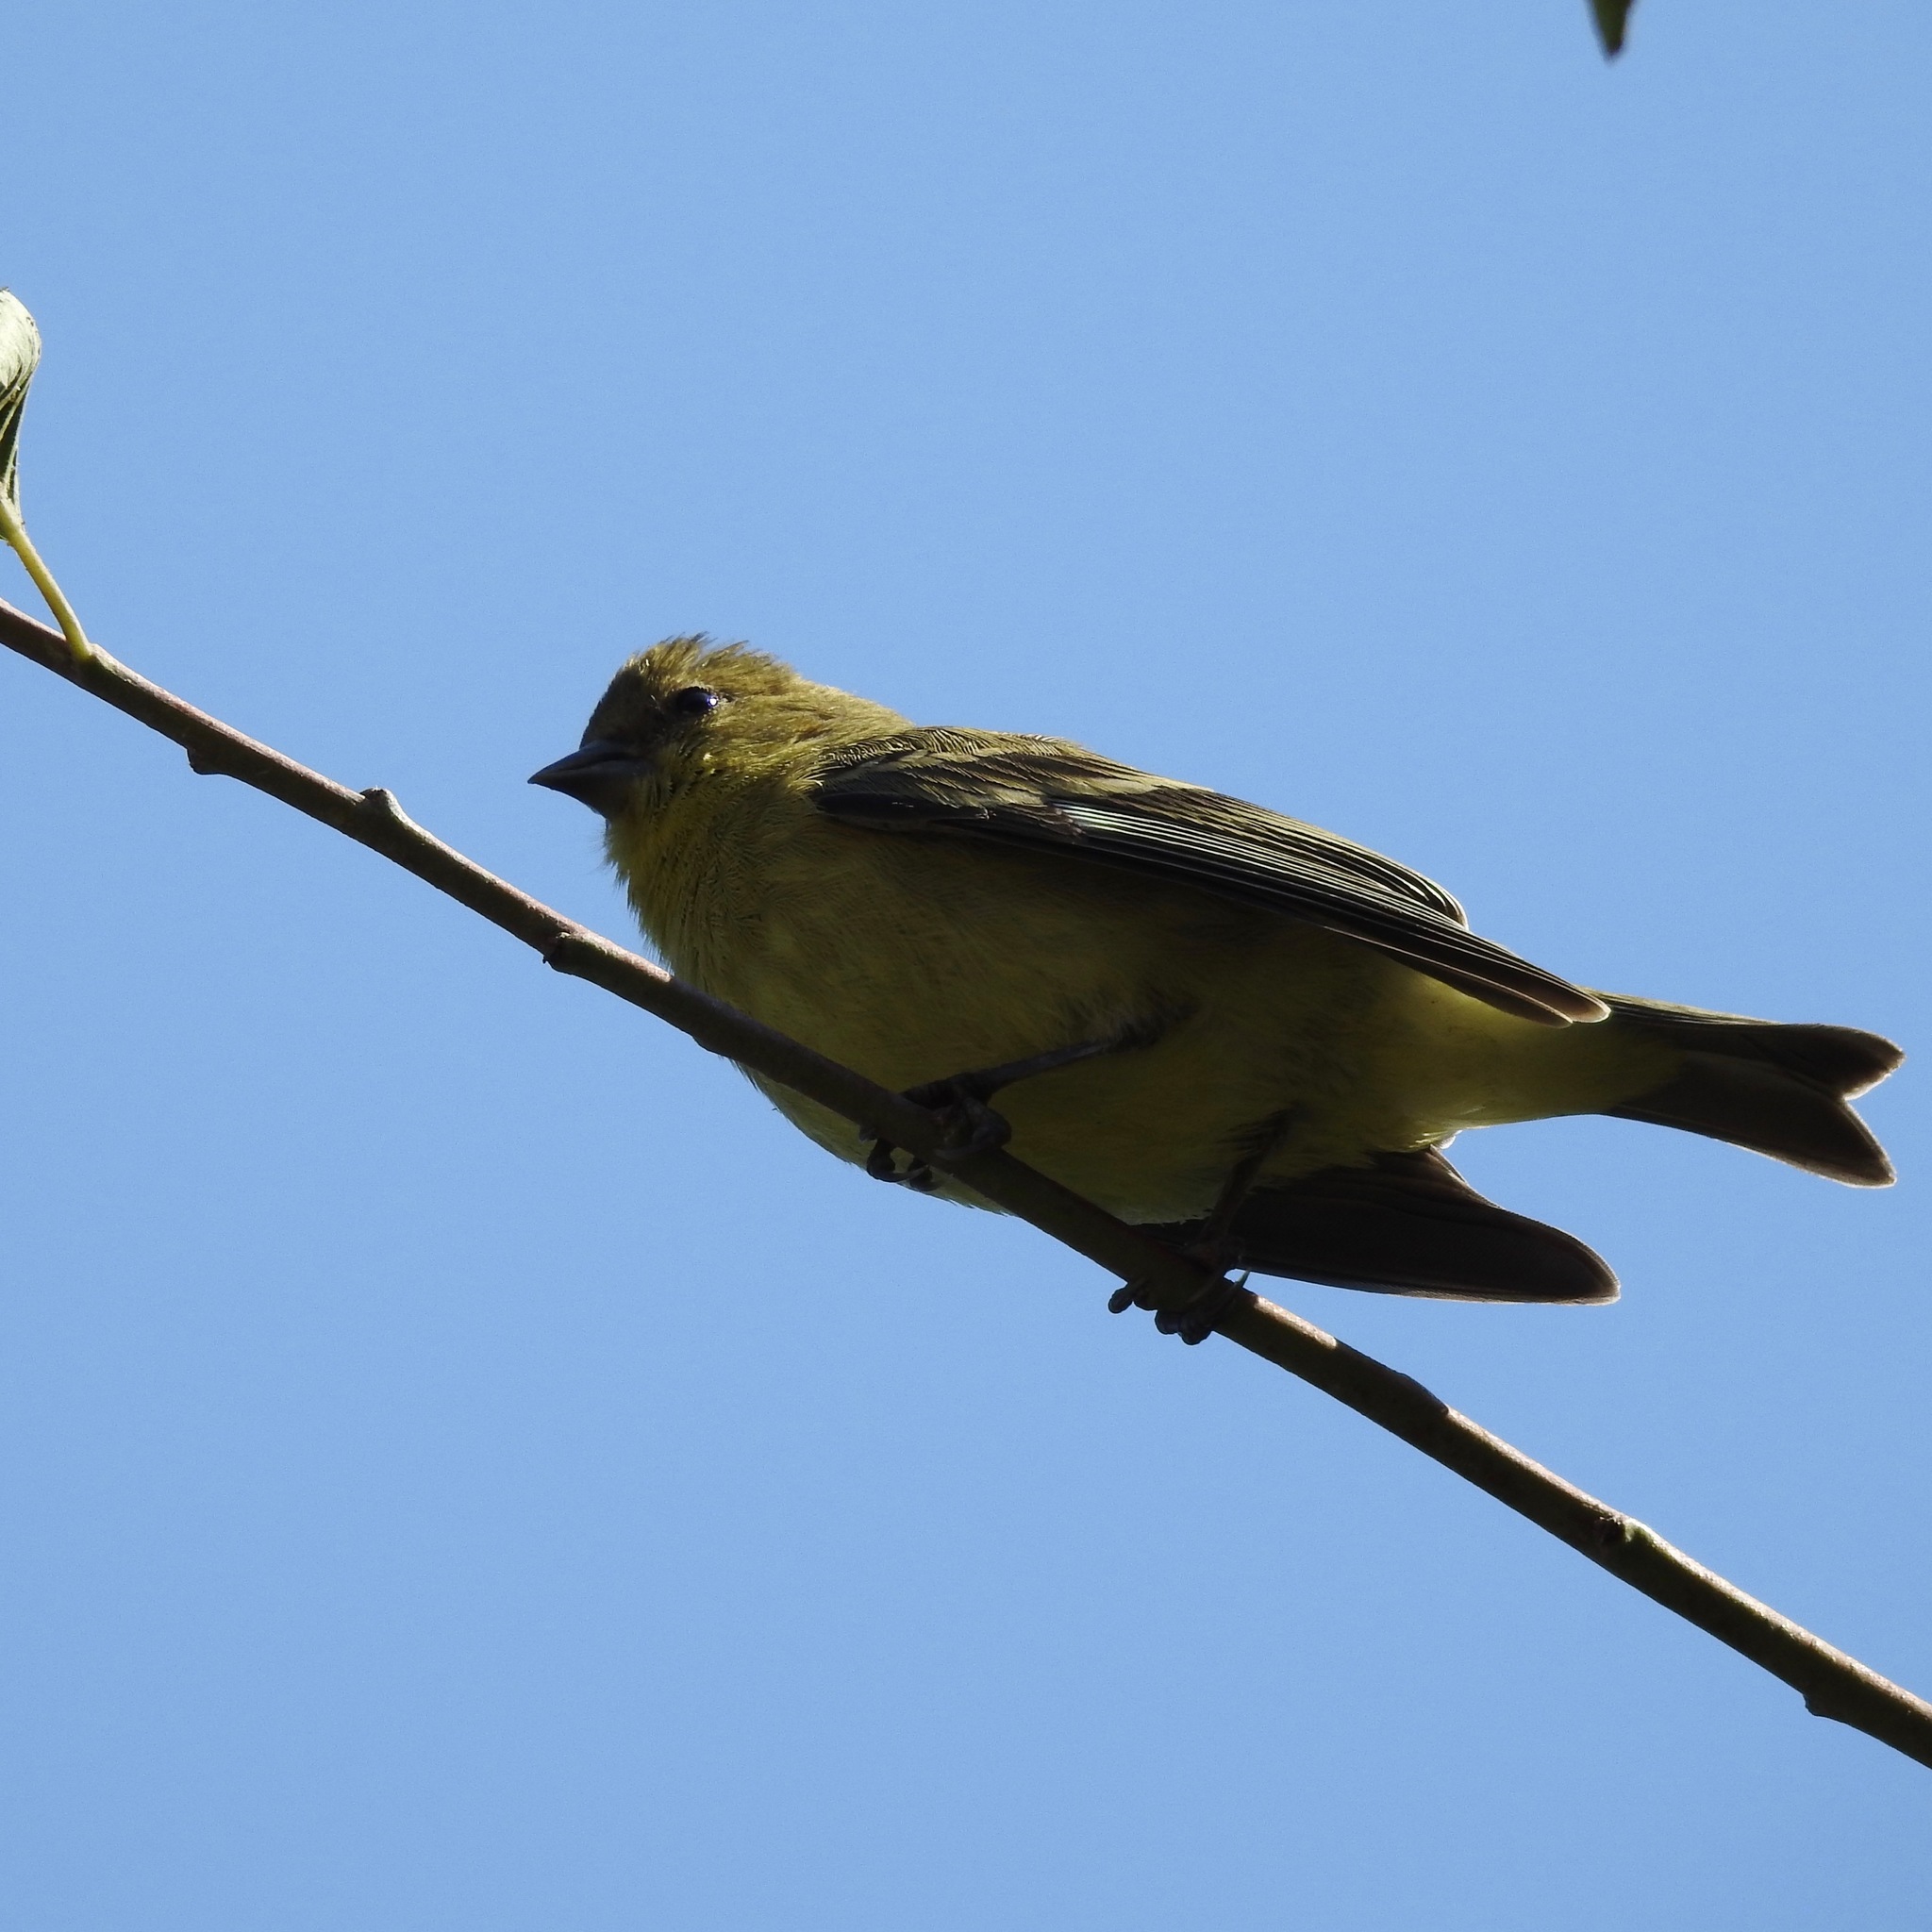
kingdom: Animalia
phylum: Chordata
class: Aves
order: Passeriformes
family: Fringillidae
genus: Spinus
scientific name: Spinus psaltria
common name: Lesser goldfinch
